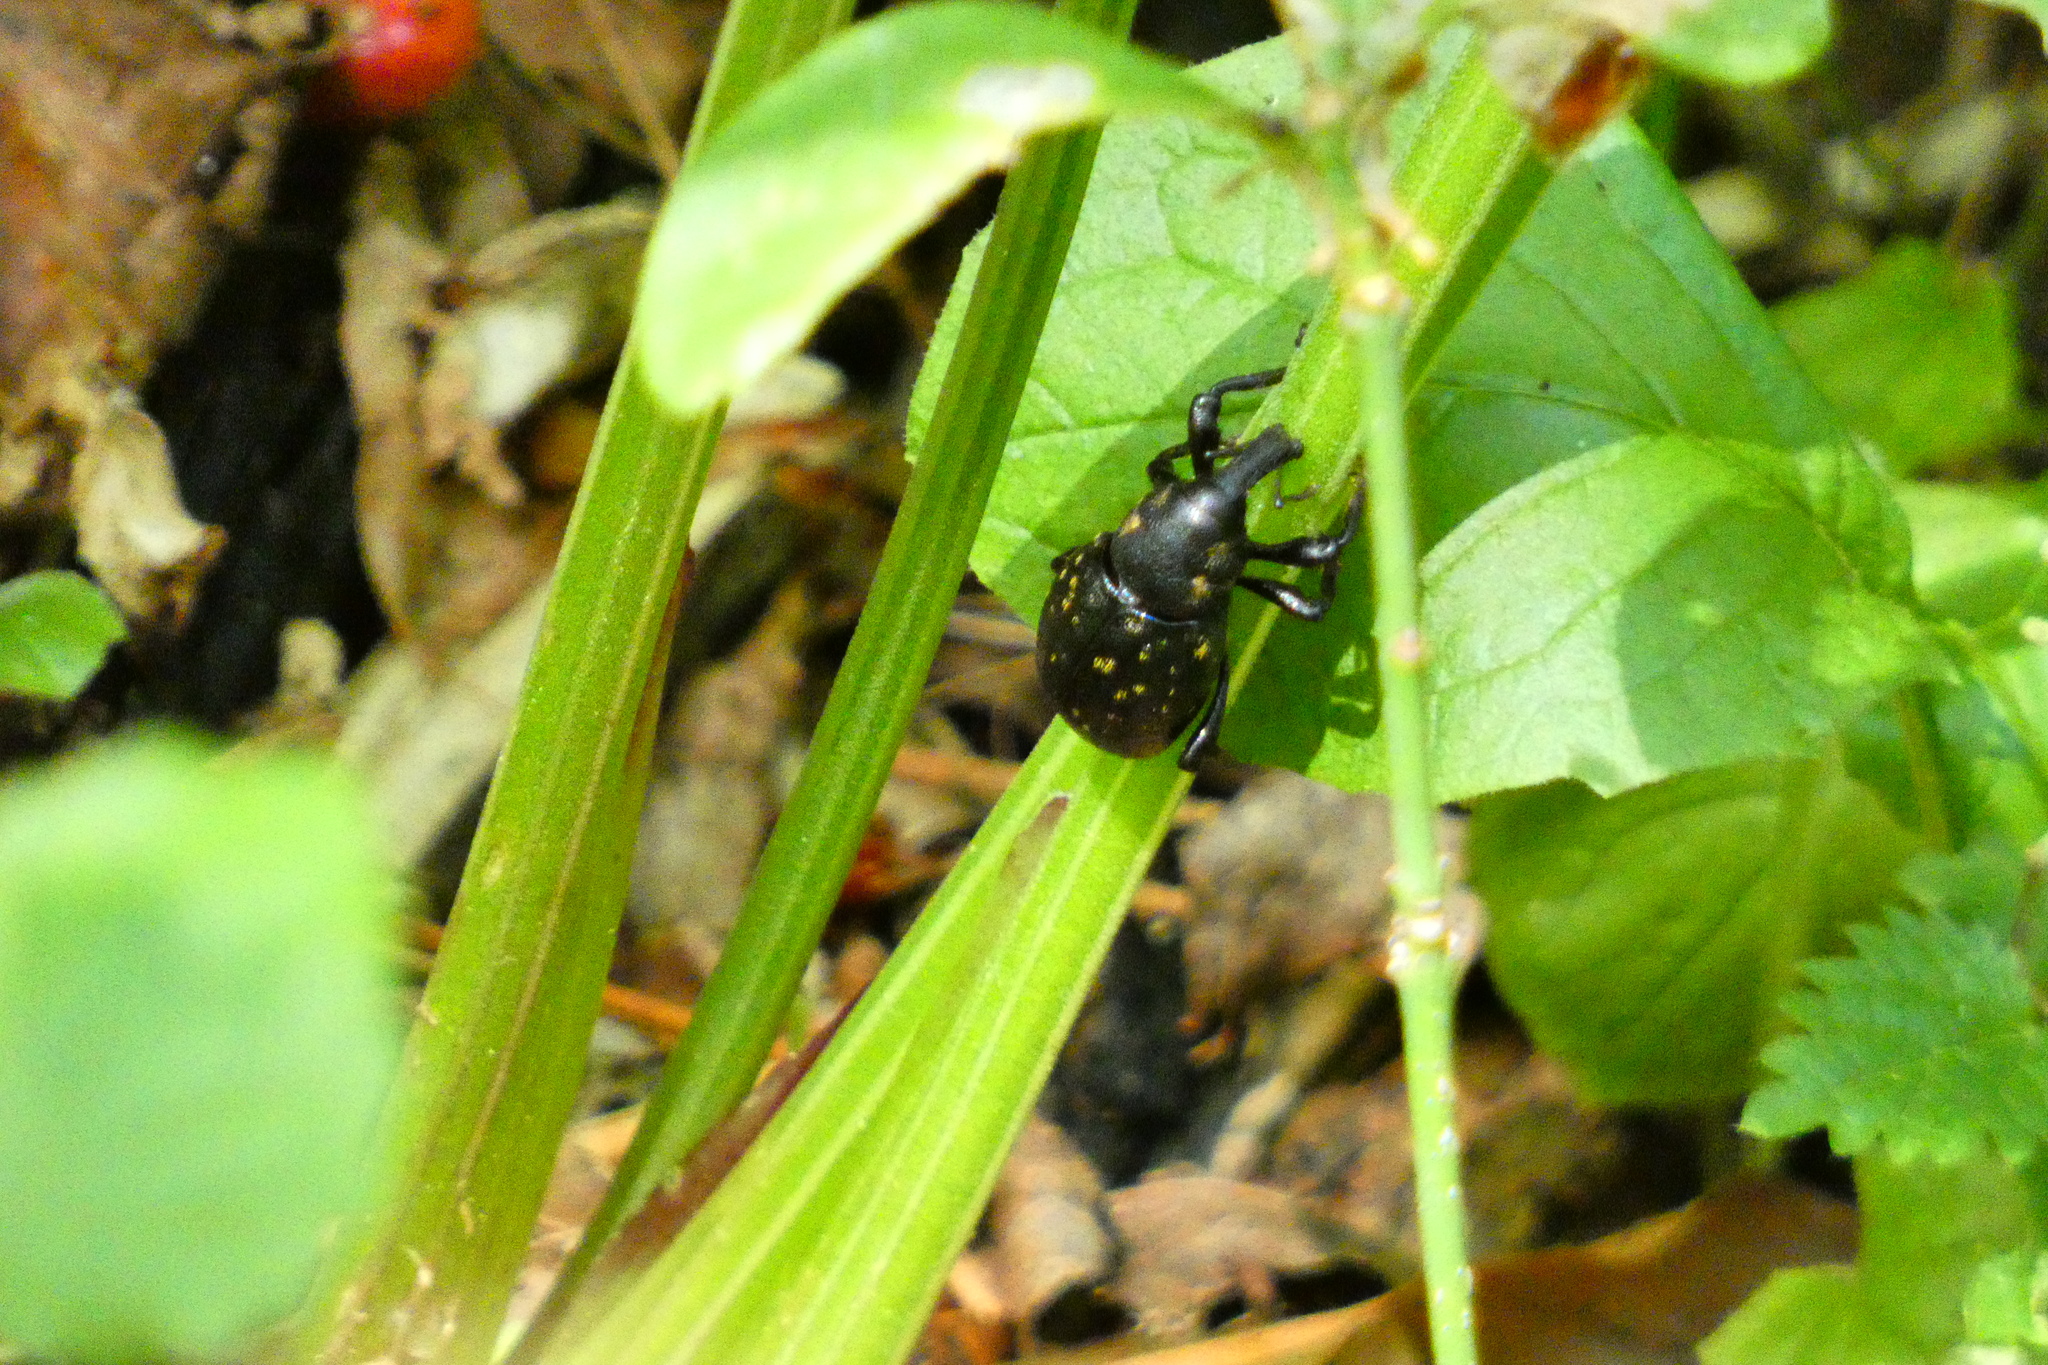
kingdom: Animalia
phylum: Arthropoda
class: Insecta
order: Coleoptera
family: Curculionidae
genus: Liparus
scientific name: Liparus germanus
